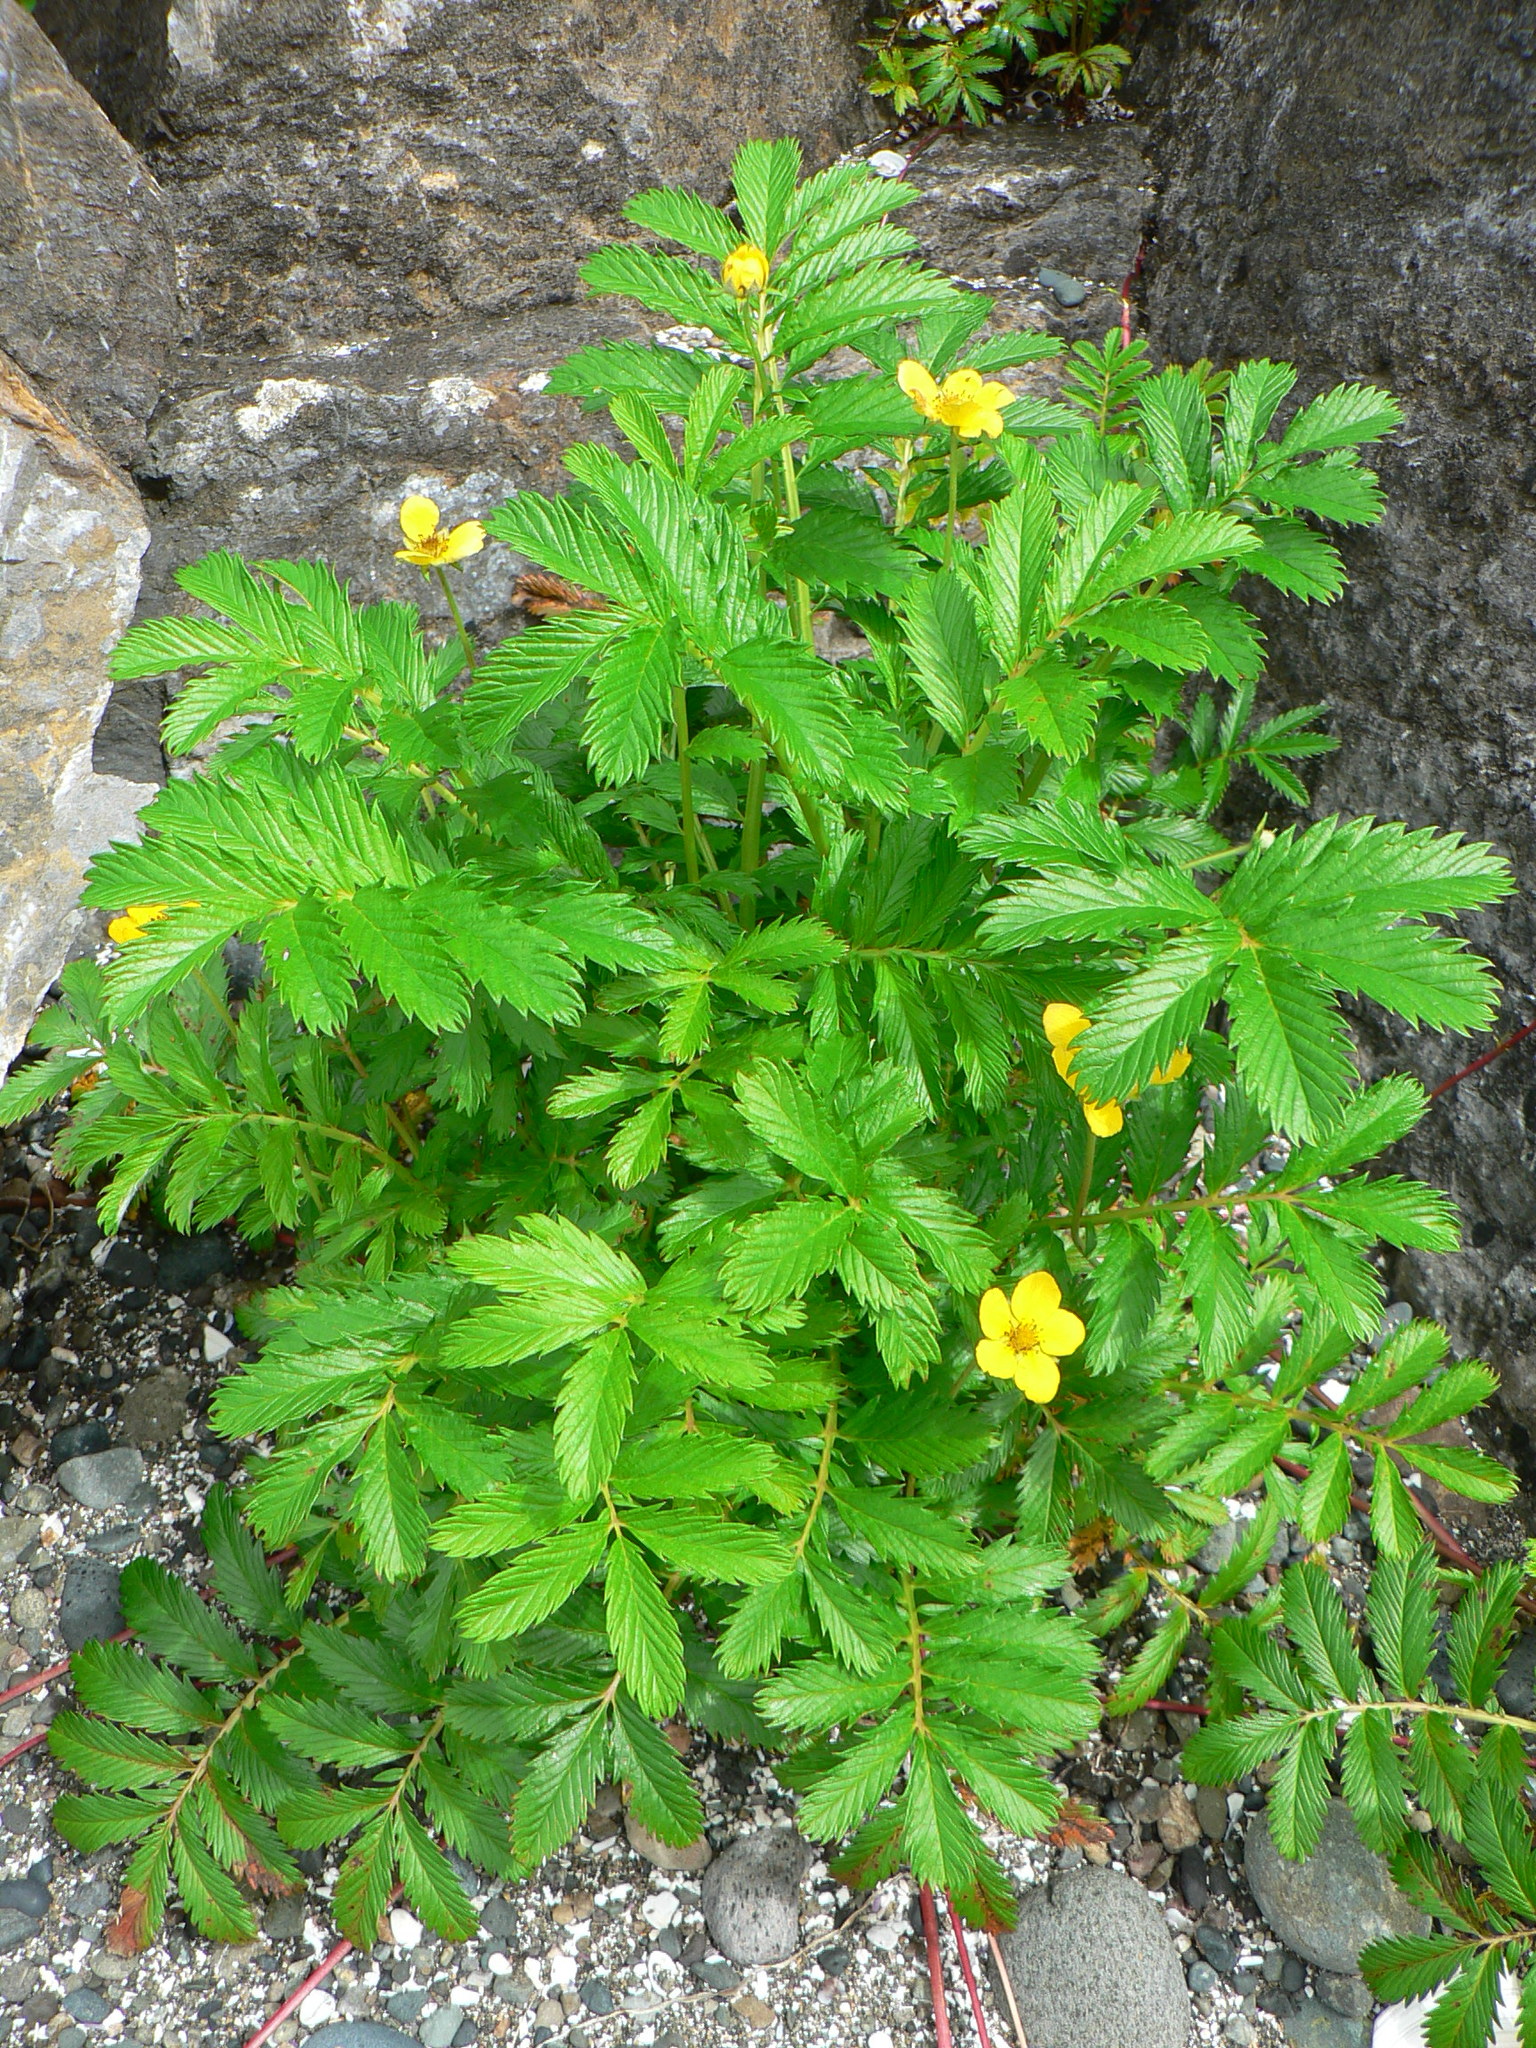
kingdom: Plantae
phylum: Tracheophyta
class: Magnoliopsida
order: Rosales
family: Rosaceae
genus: Argentina
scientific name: Argentina anserina
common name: Common silverweed
